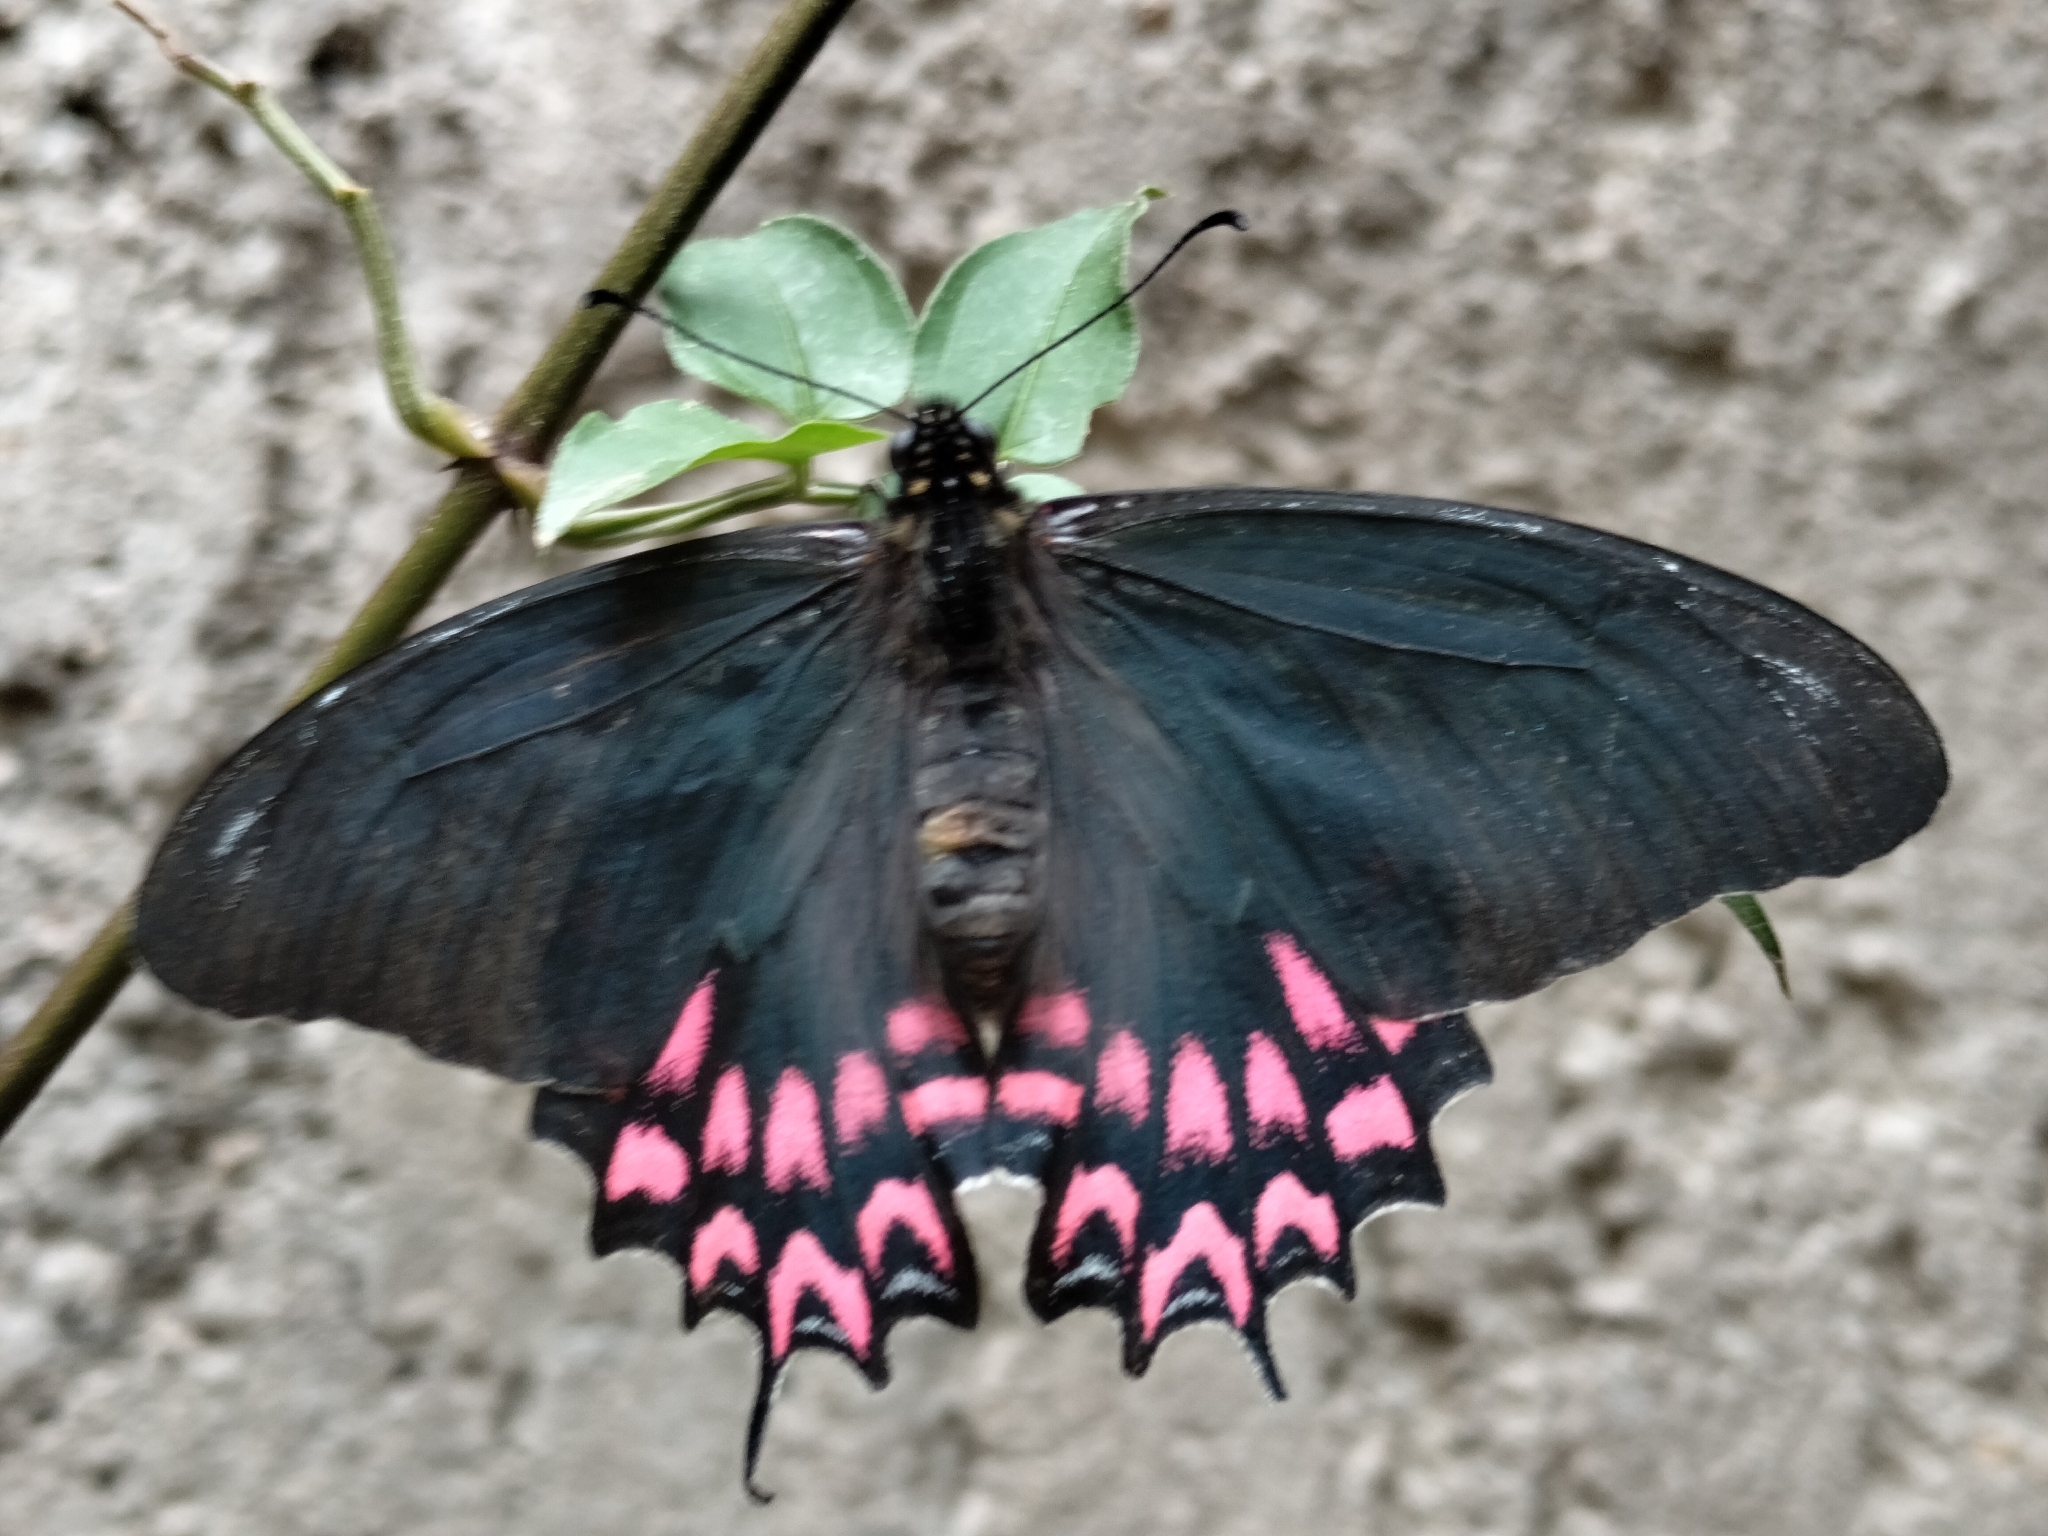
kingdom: Animalia
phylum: Arthropoda
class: Insecta
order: Lepidoptera
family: Papilionidae
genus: Mimoides
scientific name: Mimoides thymbraeus
